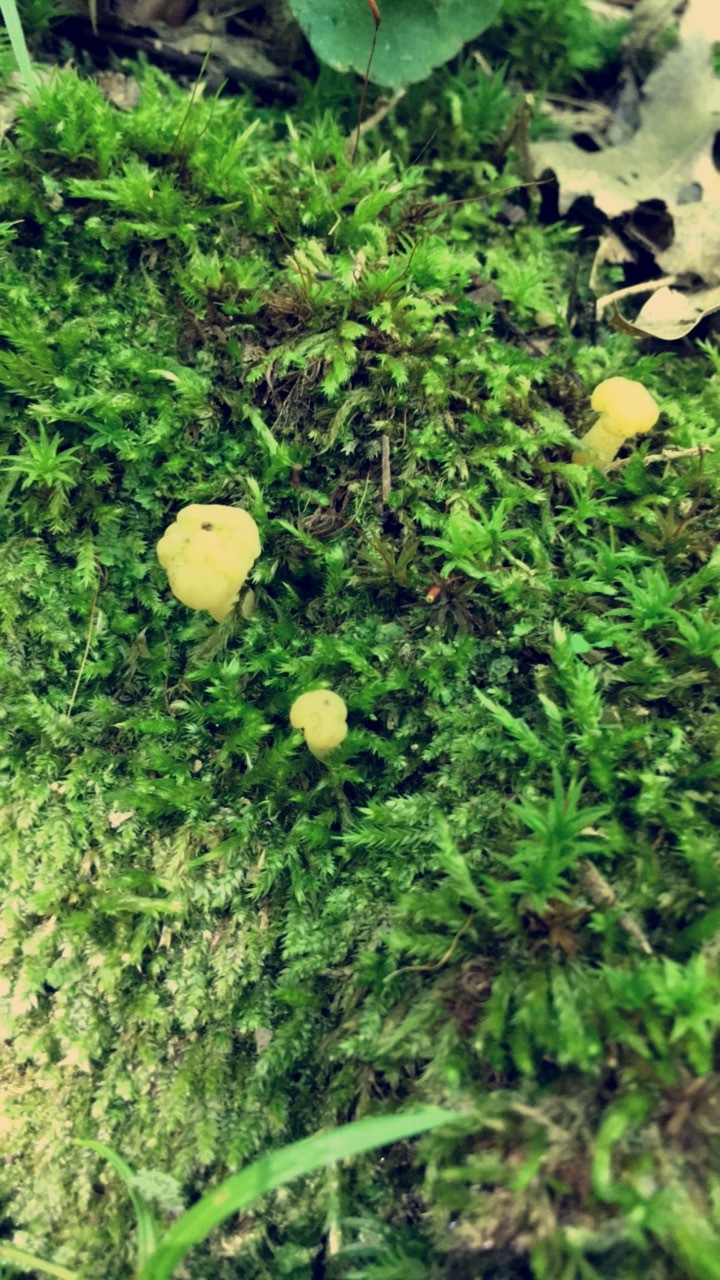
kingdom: Fungi
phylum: Ascomycota
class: Leotiomycetes
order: Leotiales
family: Leotiaceae
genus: Leotia
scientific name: Leotia lubrica
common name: Jellybaby
